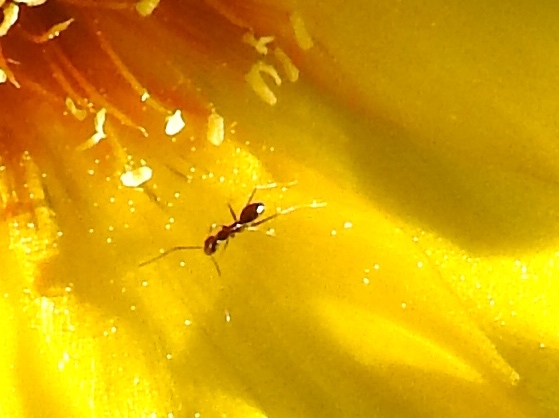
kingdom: Animalia
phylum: Arthropoda
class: Insecta
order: Hymenoptera
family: Formicidae
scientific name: Formicidae
